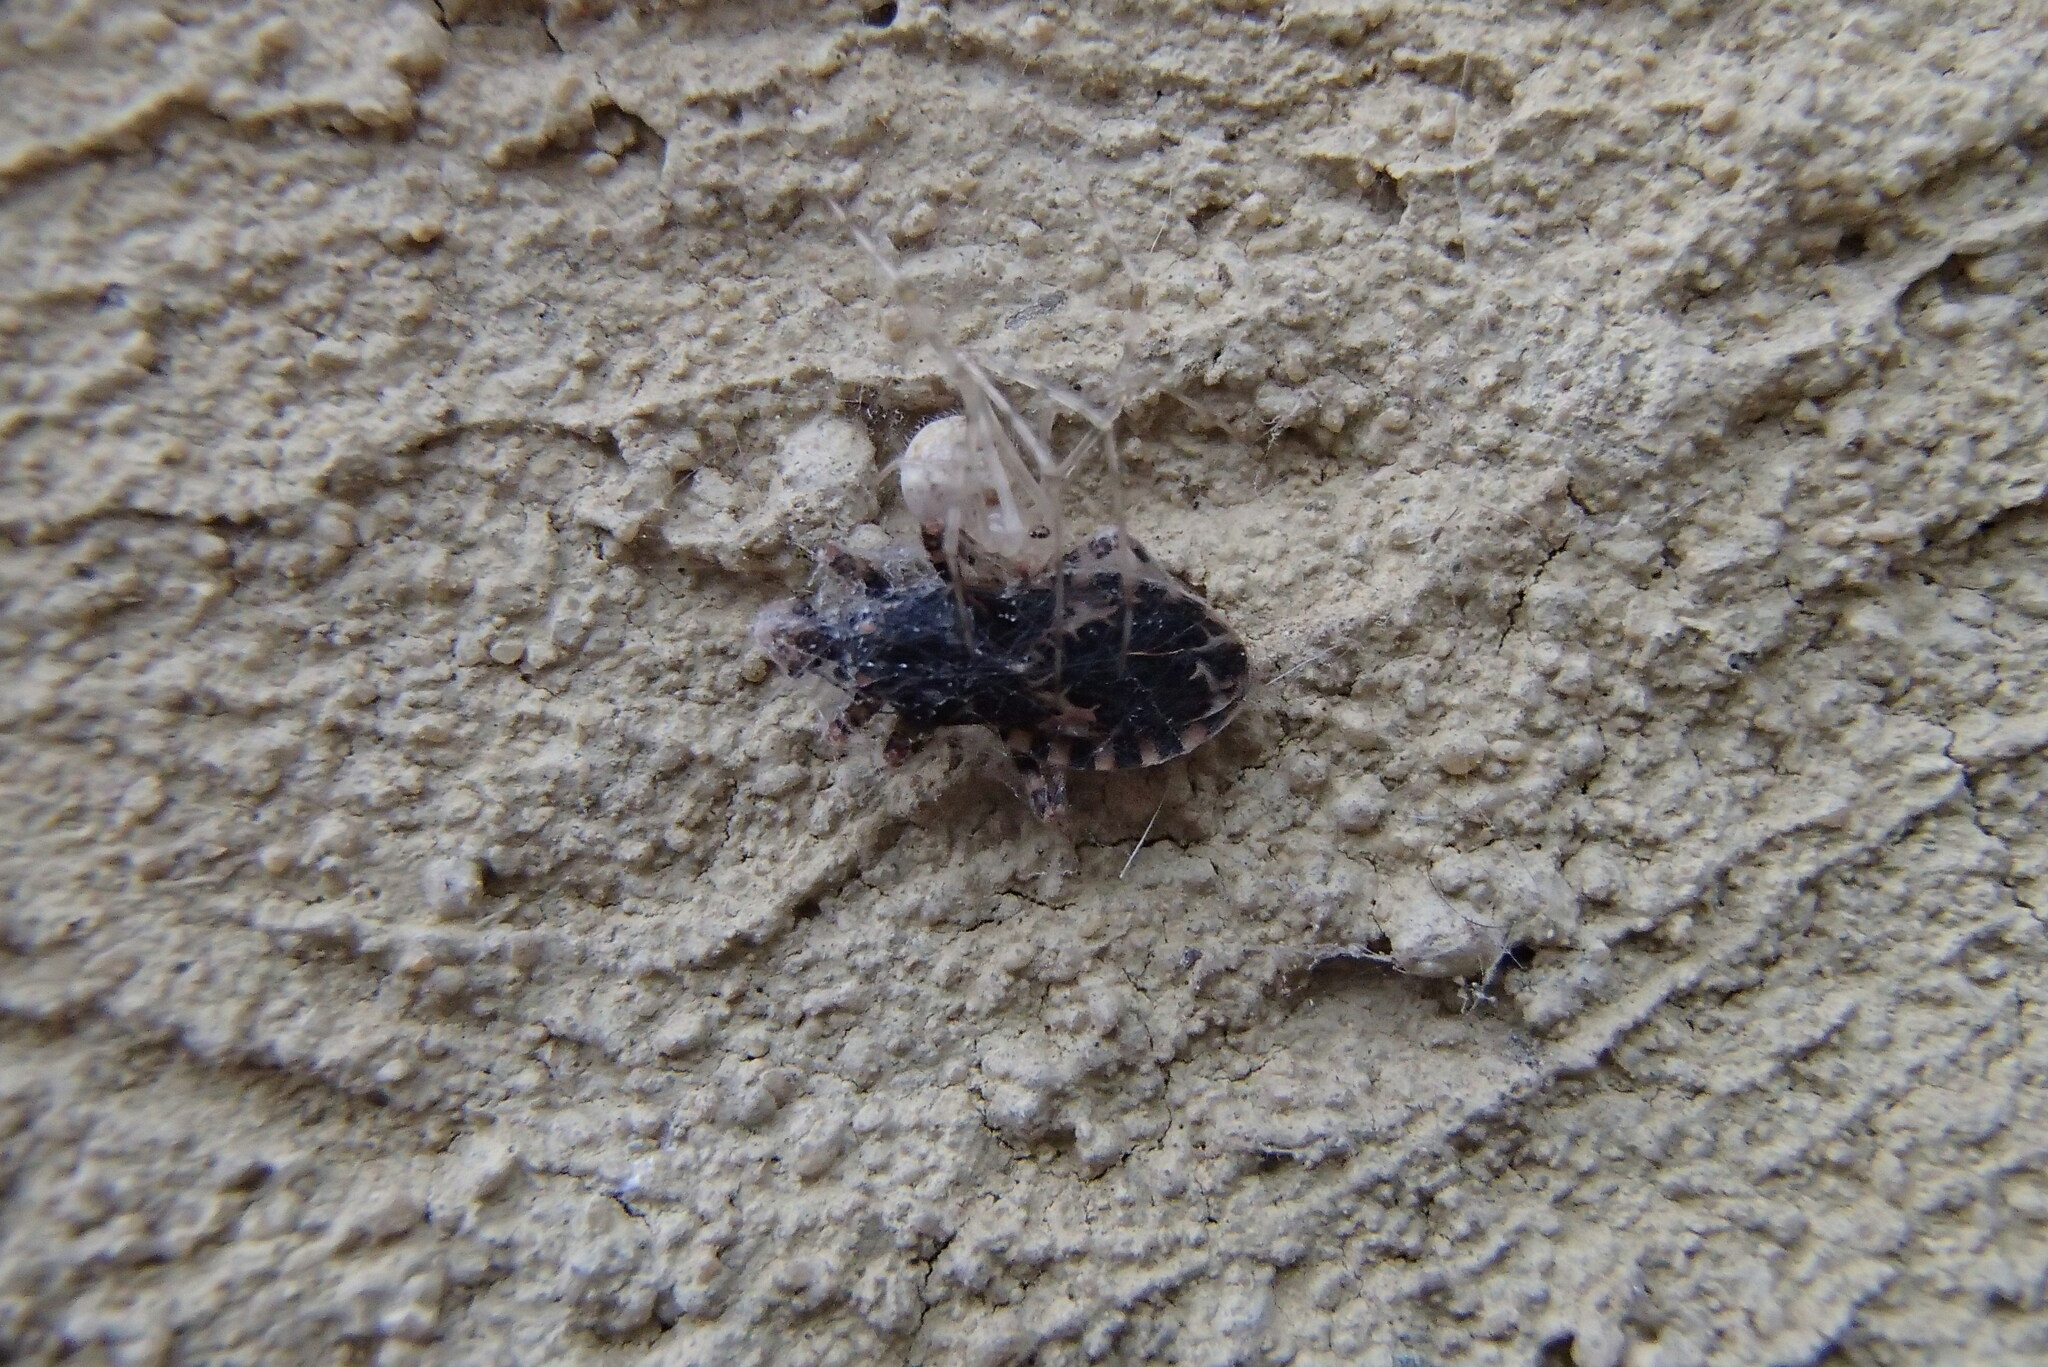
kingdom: Animalia
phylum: Arthropoda
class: Arachnida
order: Araneae
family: Theridiidae
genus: Cryptachaea
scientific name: Cryptachaea gigantipes
